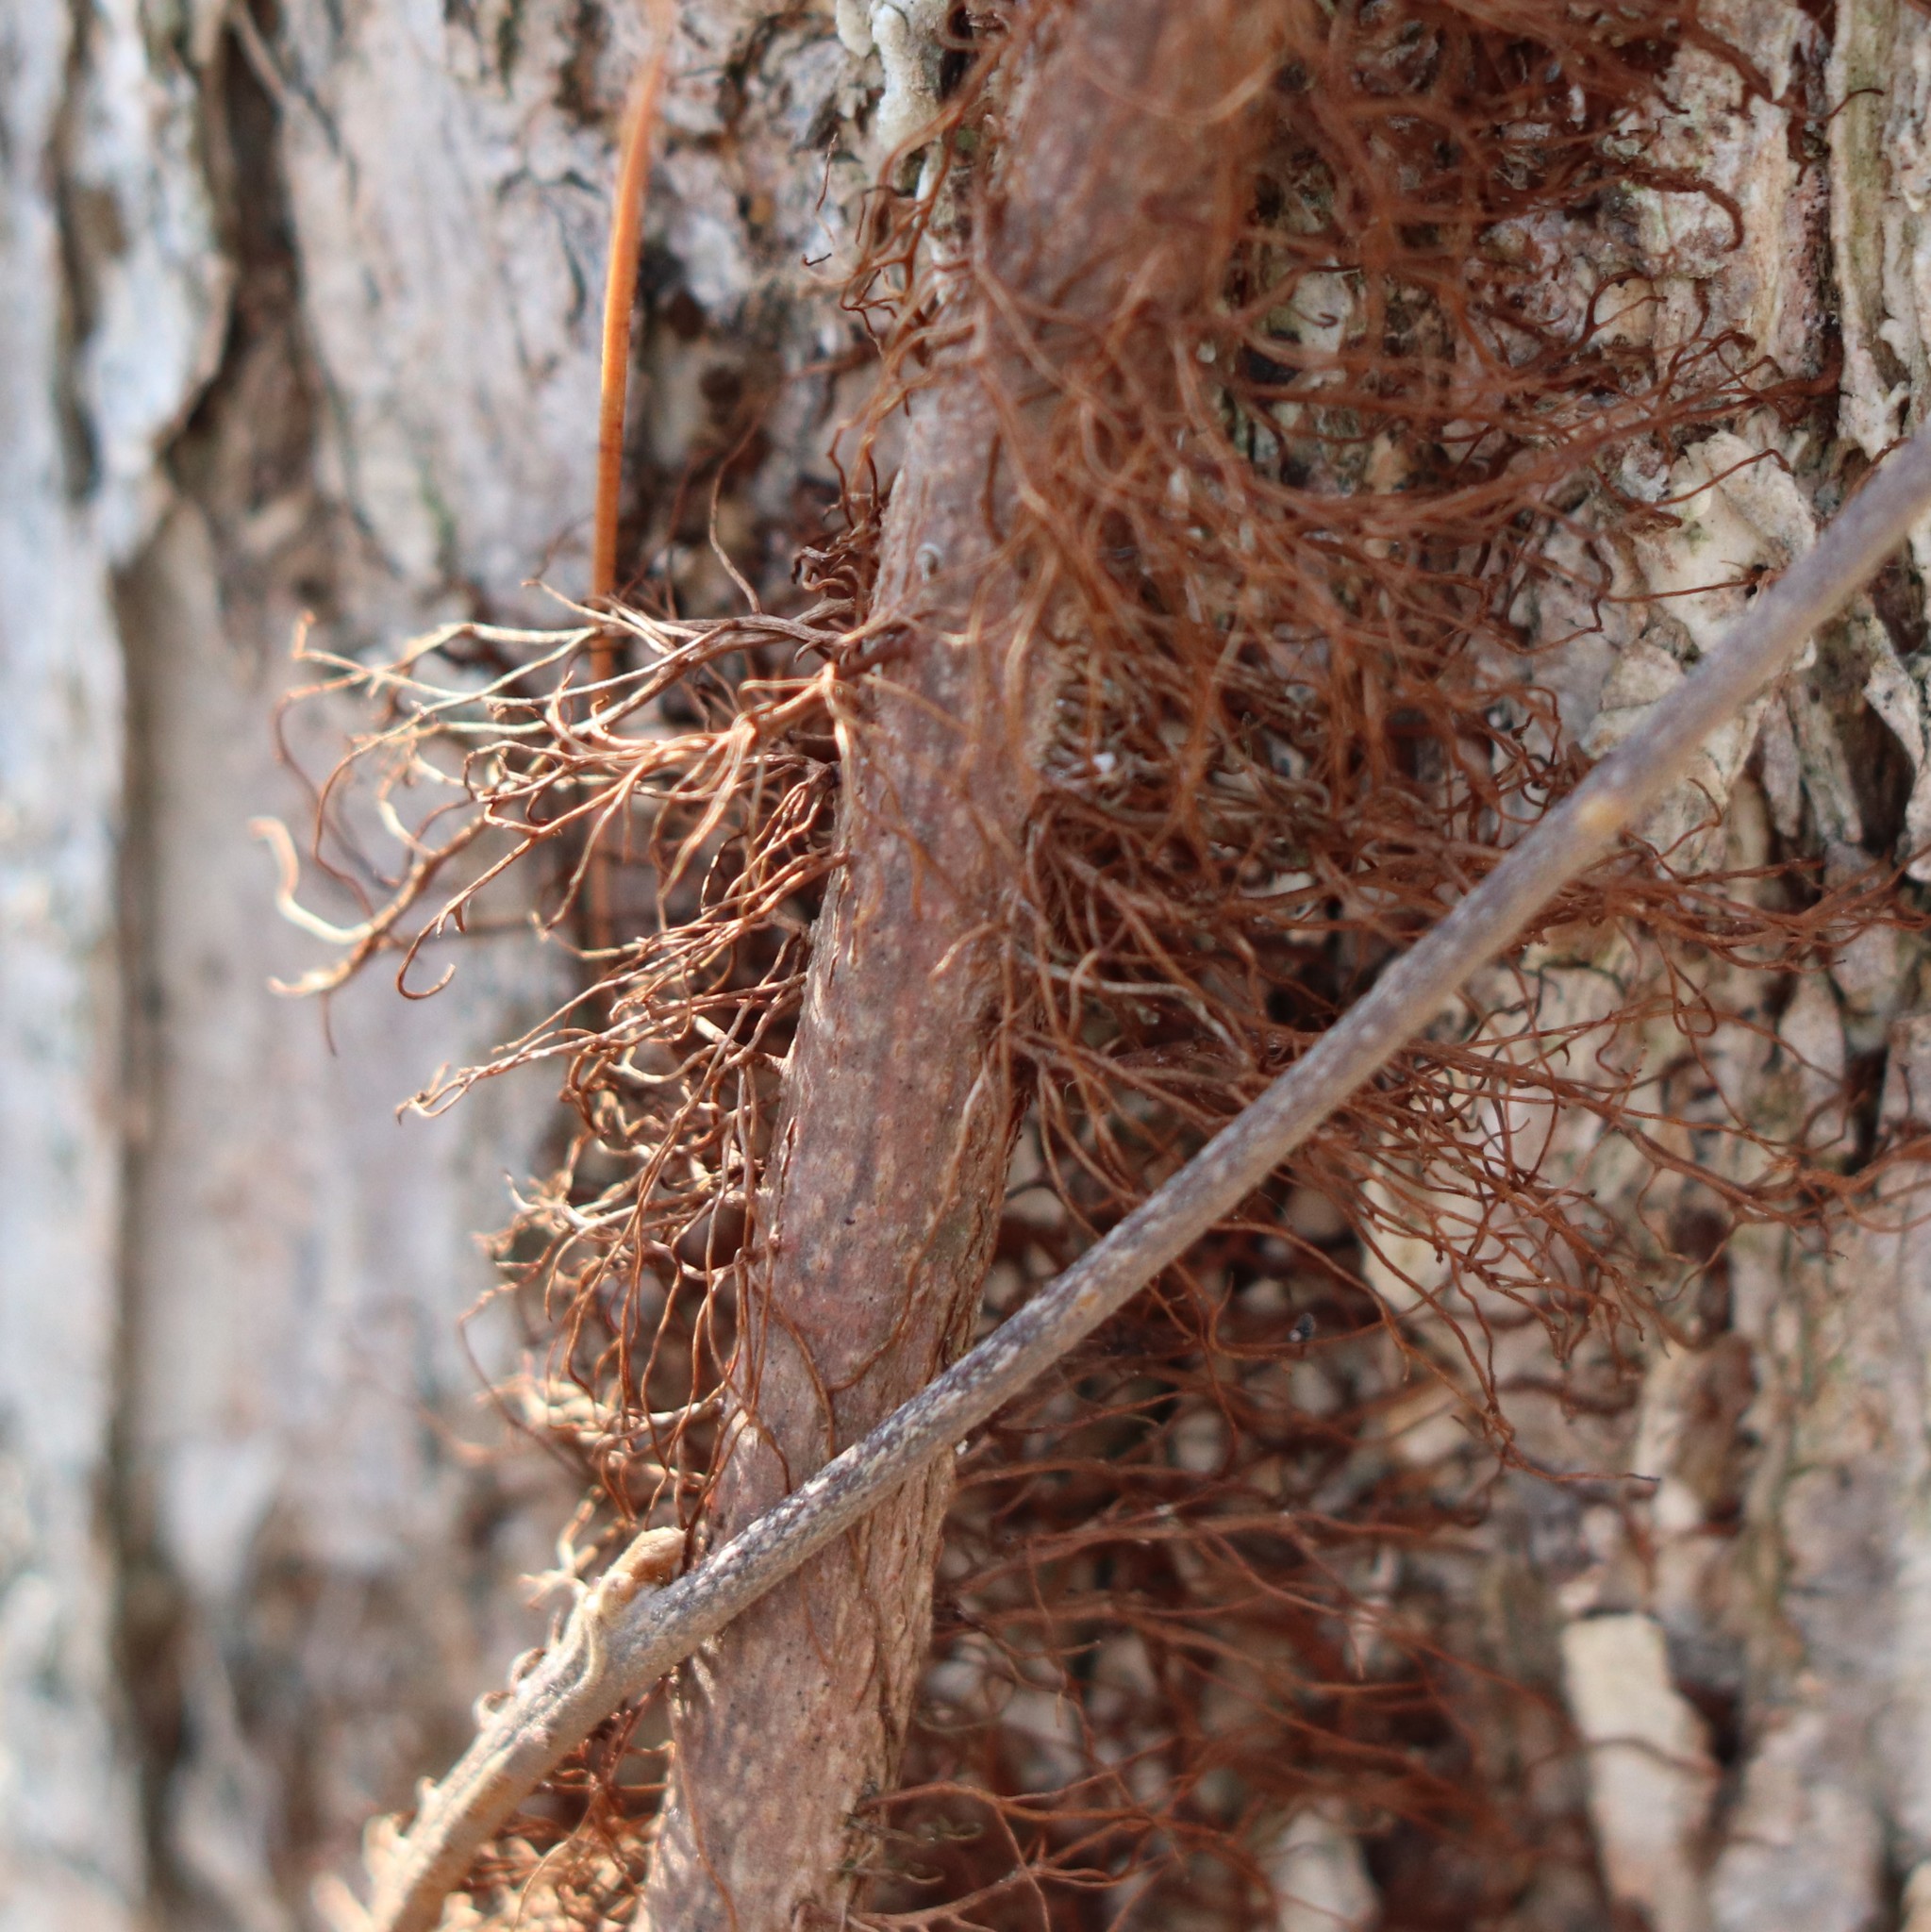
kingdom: Plantae
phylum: Tracheophyta
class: Magnoliopsida
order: Sapindales
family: Anacardiaceae
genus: Toxicodendron
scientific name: Toxicodendron radicans
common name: Poison ivy
